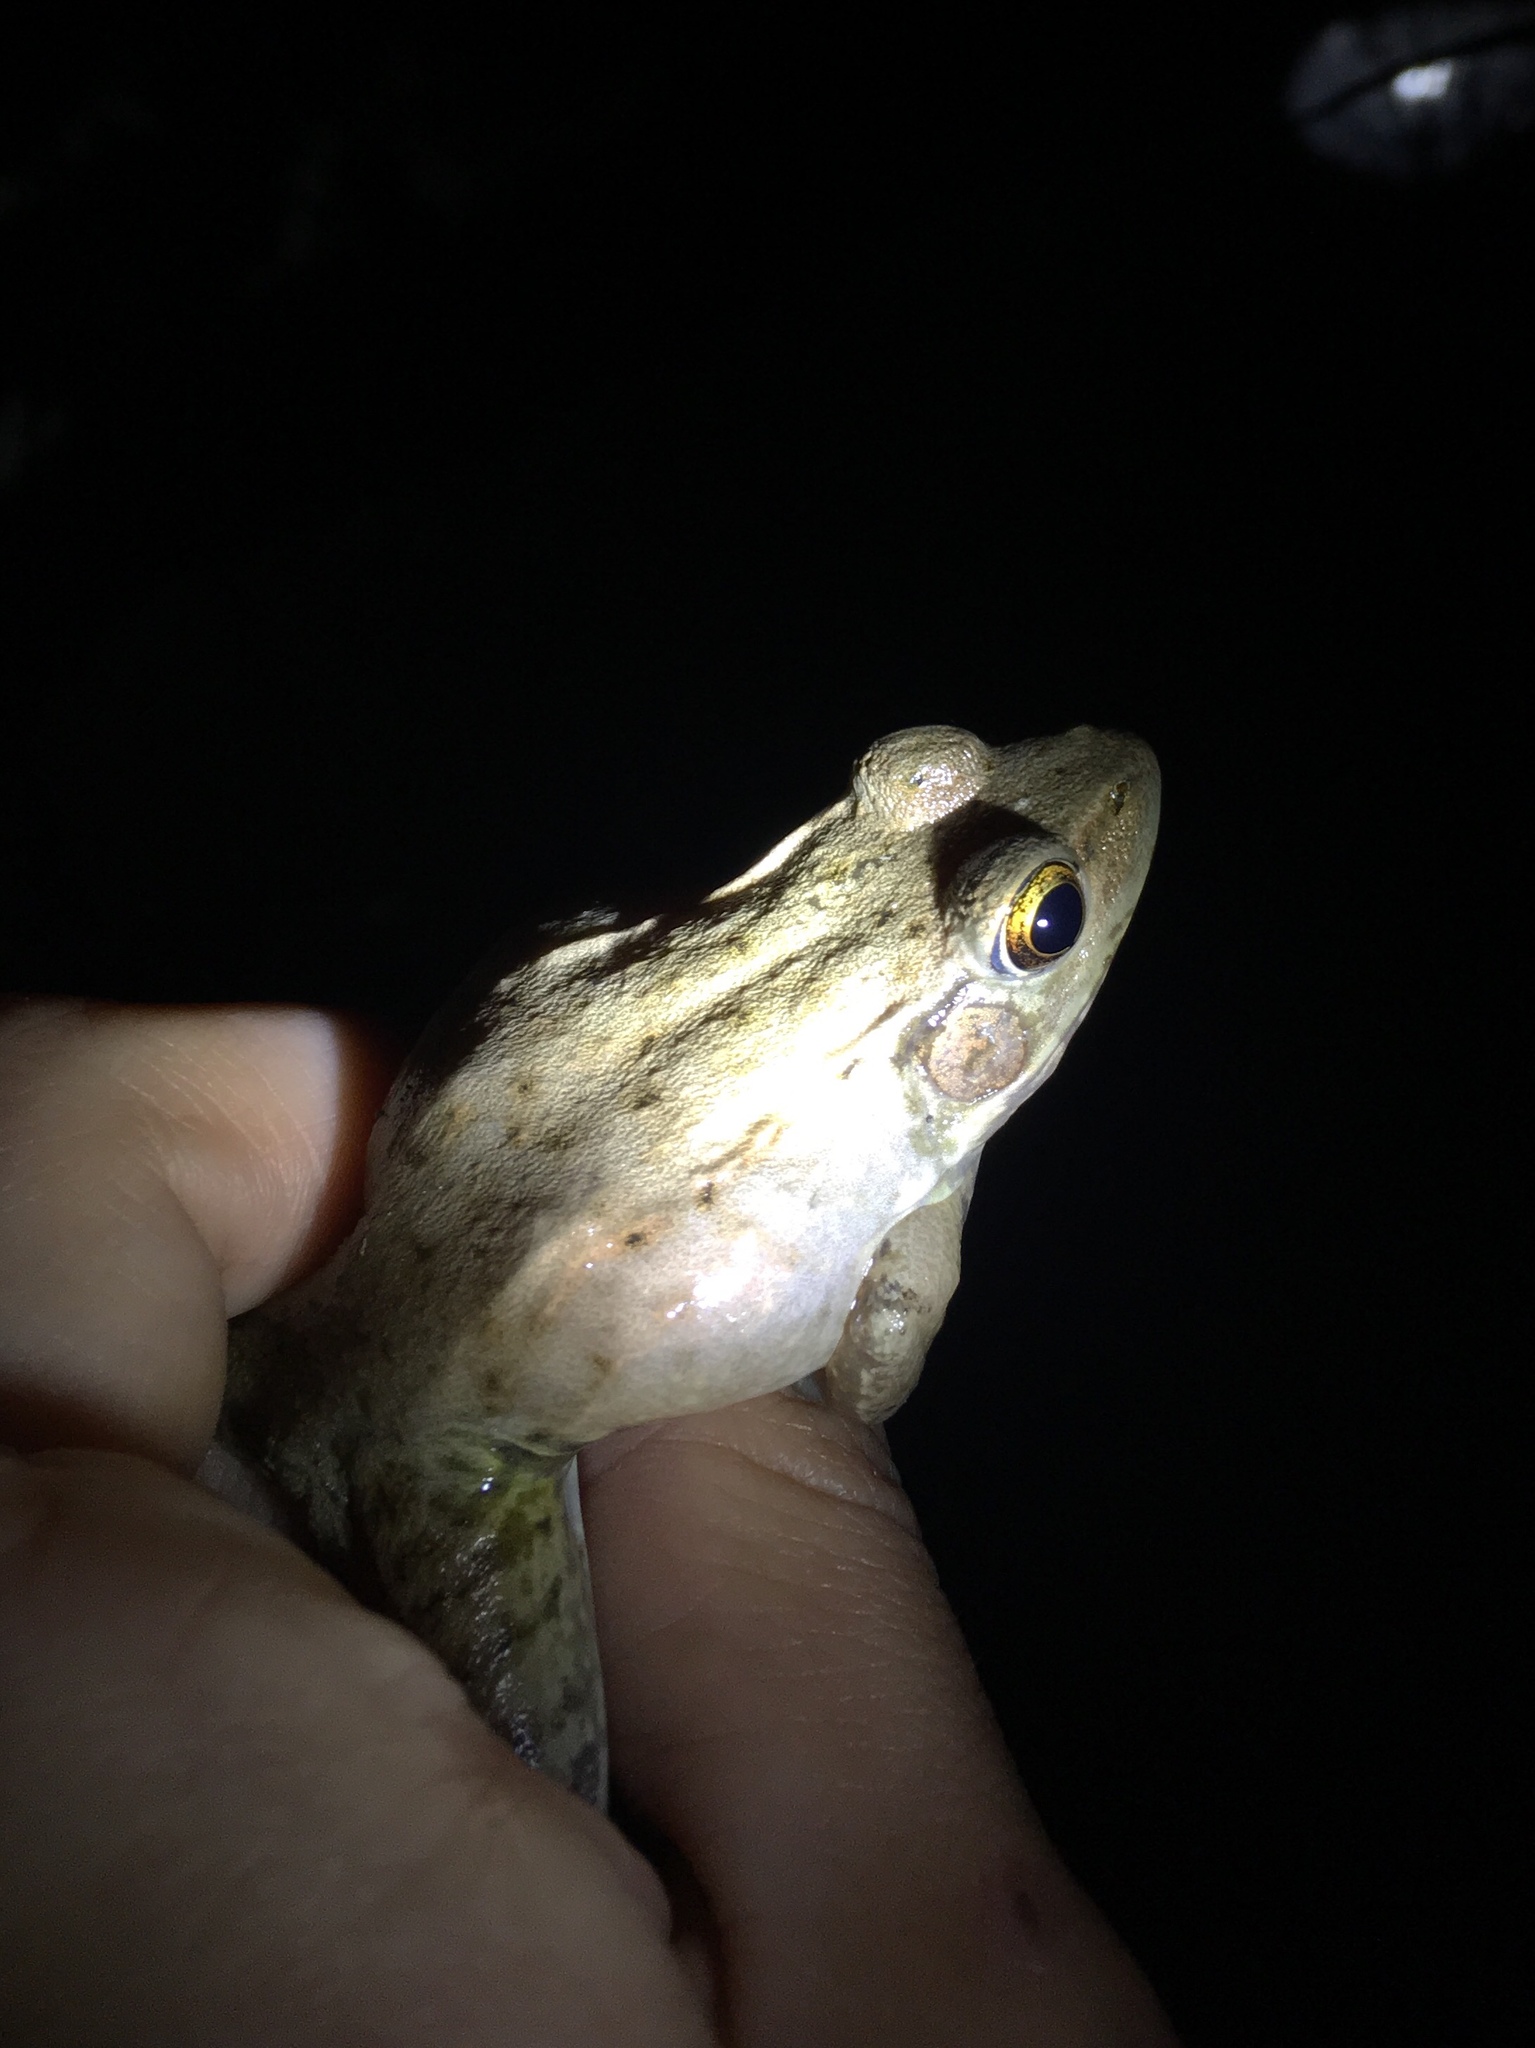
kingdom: Animalia
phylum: Chordata
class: Amphibia
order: Anura
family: Ranidae
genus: Lithobates
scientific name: Lithobates clamitans
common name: Green frog
